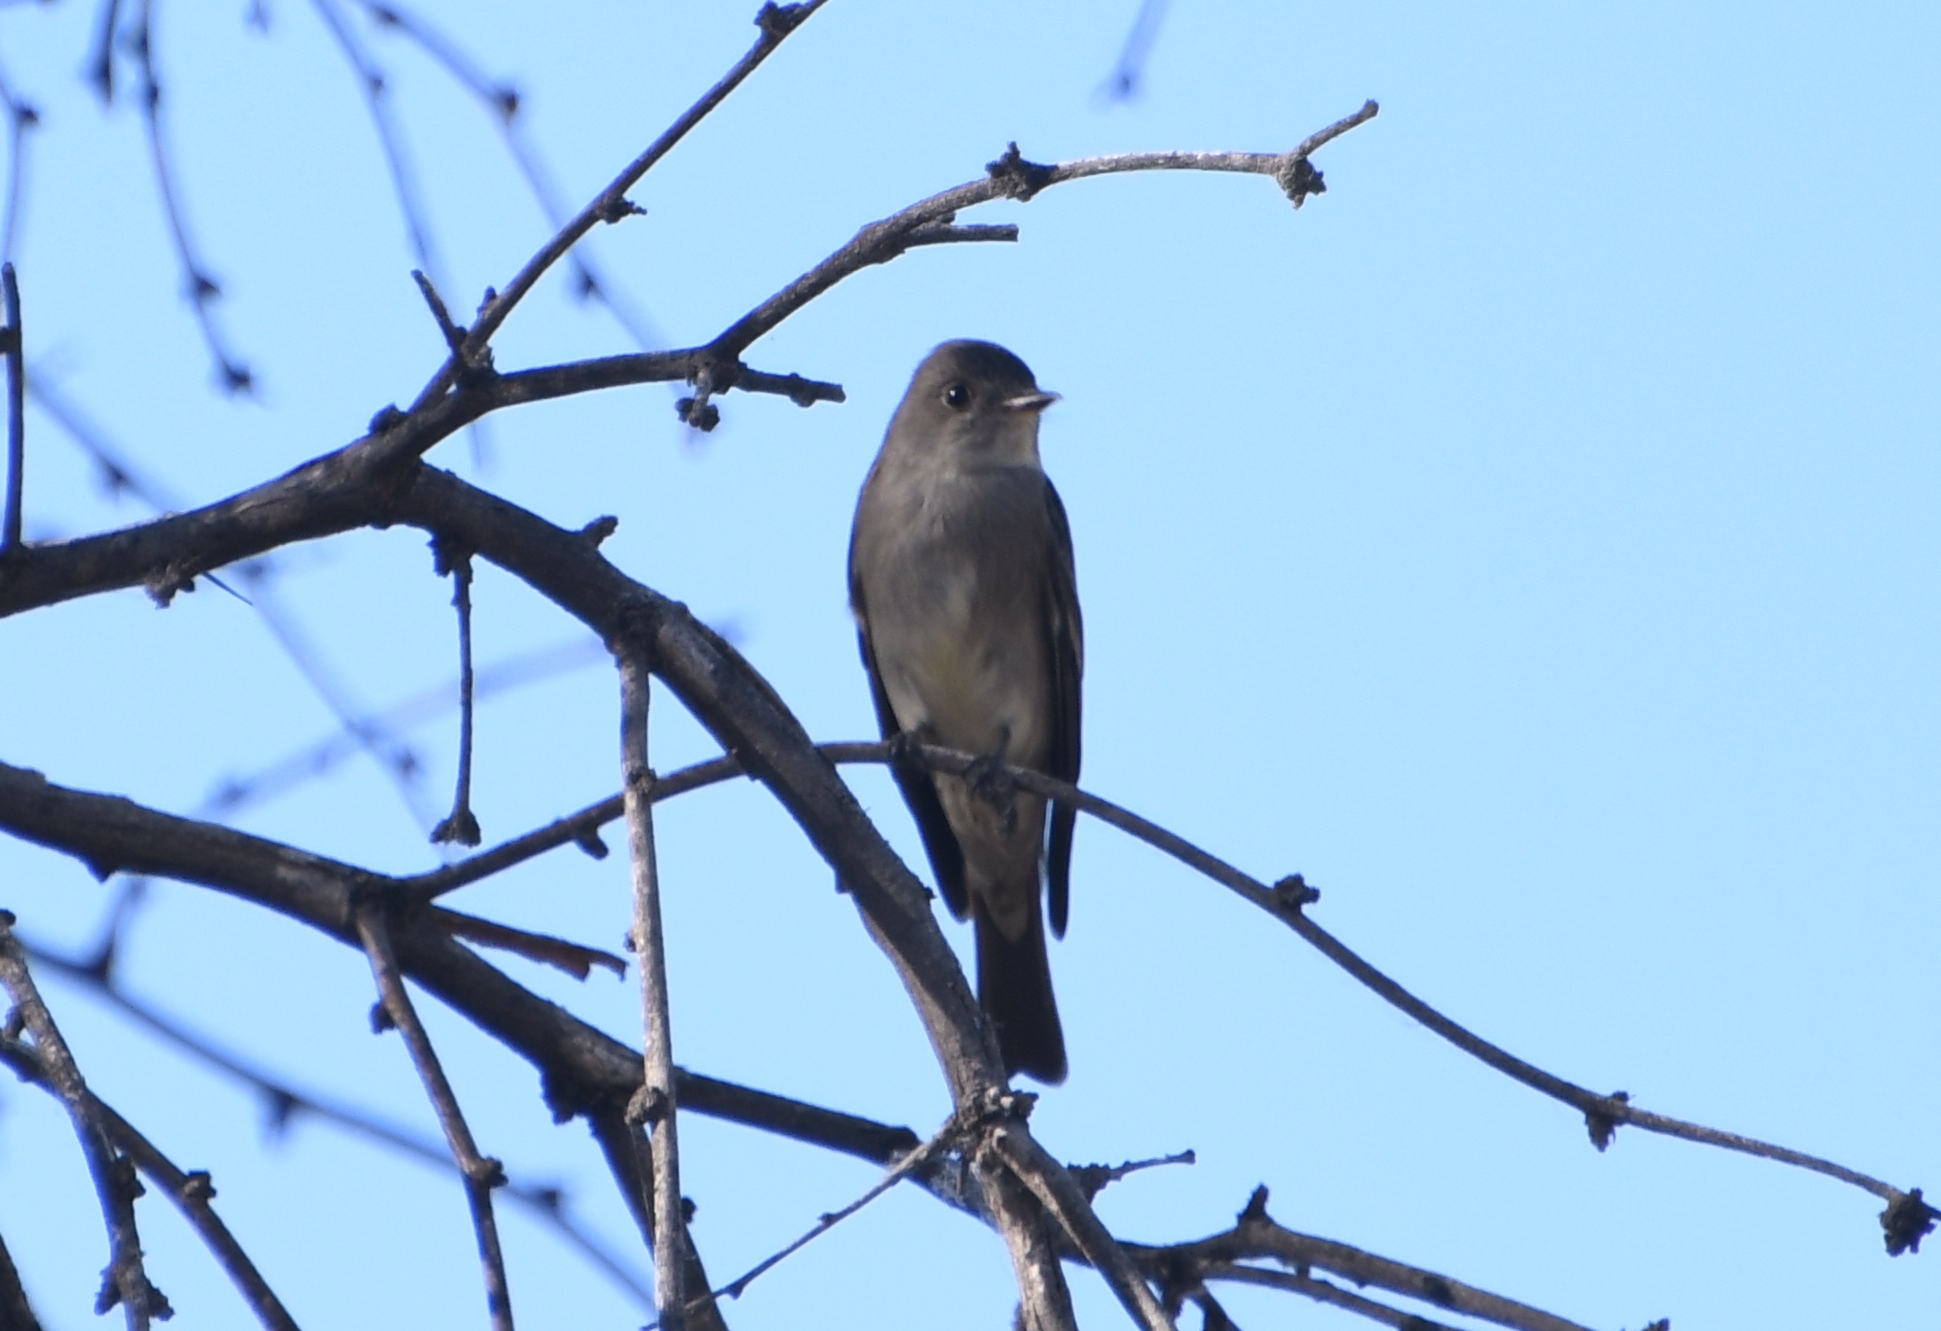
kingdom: Animalia
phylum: Chordata
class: Aves
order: Passeriformes
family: Tyrannidae
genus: Contopus
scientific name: Contopus sordidulus
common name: Western wood-pewee
